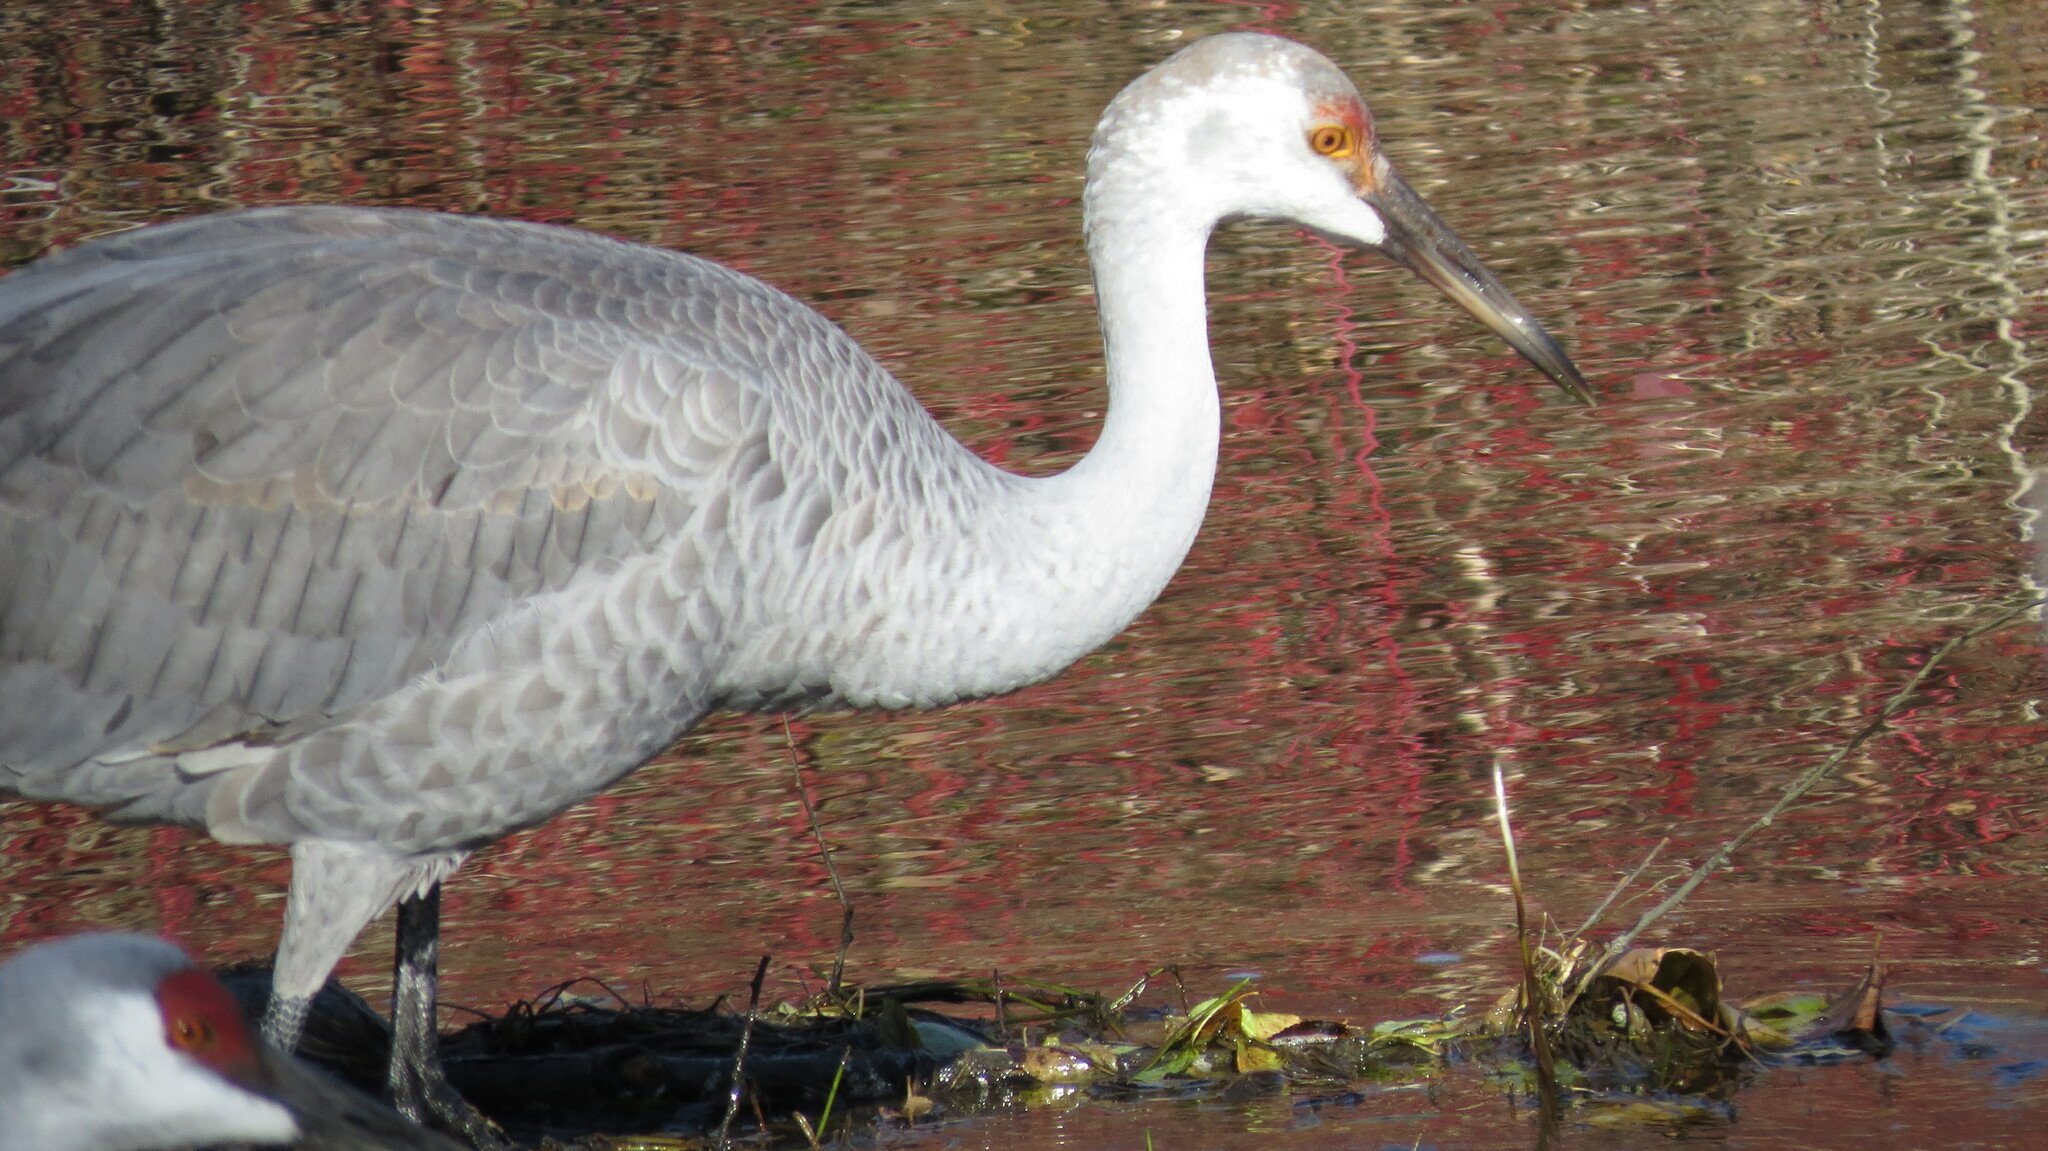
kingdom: Animalia
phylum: Chordata
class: Aves
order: Gruiformes
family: Gruidae
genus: Grus
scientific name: Grus canadensis
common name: Sandhill crane
